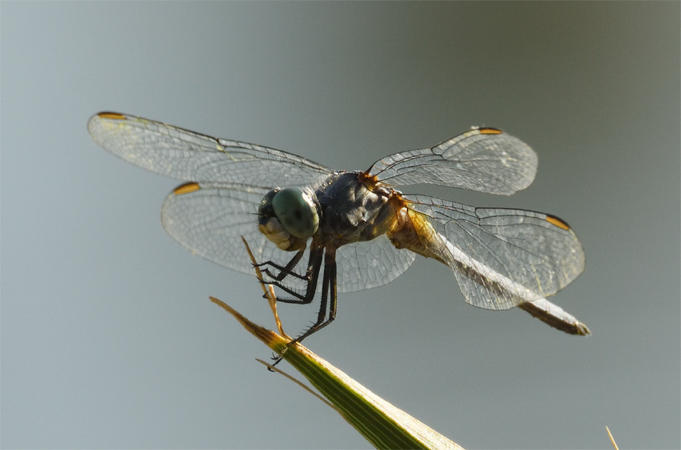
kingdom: Animalia
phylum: Arthropoda
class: Insecta
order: Odonata
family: Libellulidae
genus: Pachydiplax
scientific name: Pachydiplax longipennis
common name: Blue dasher
